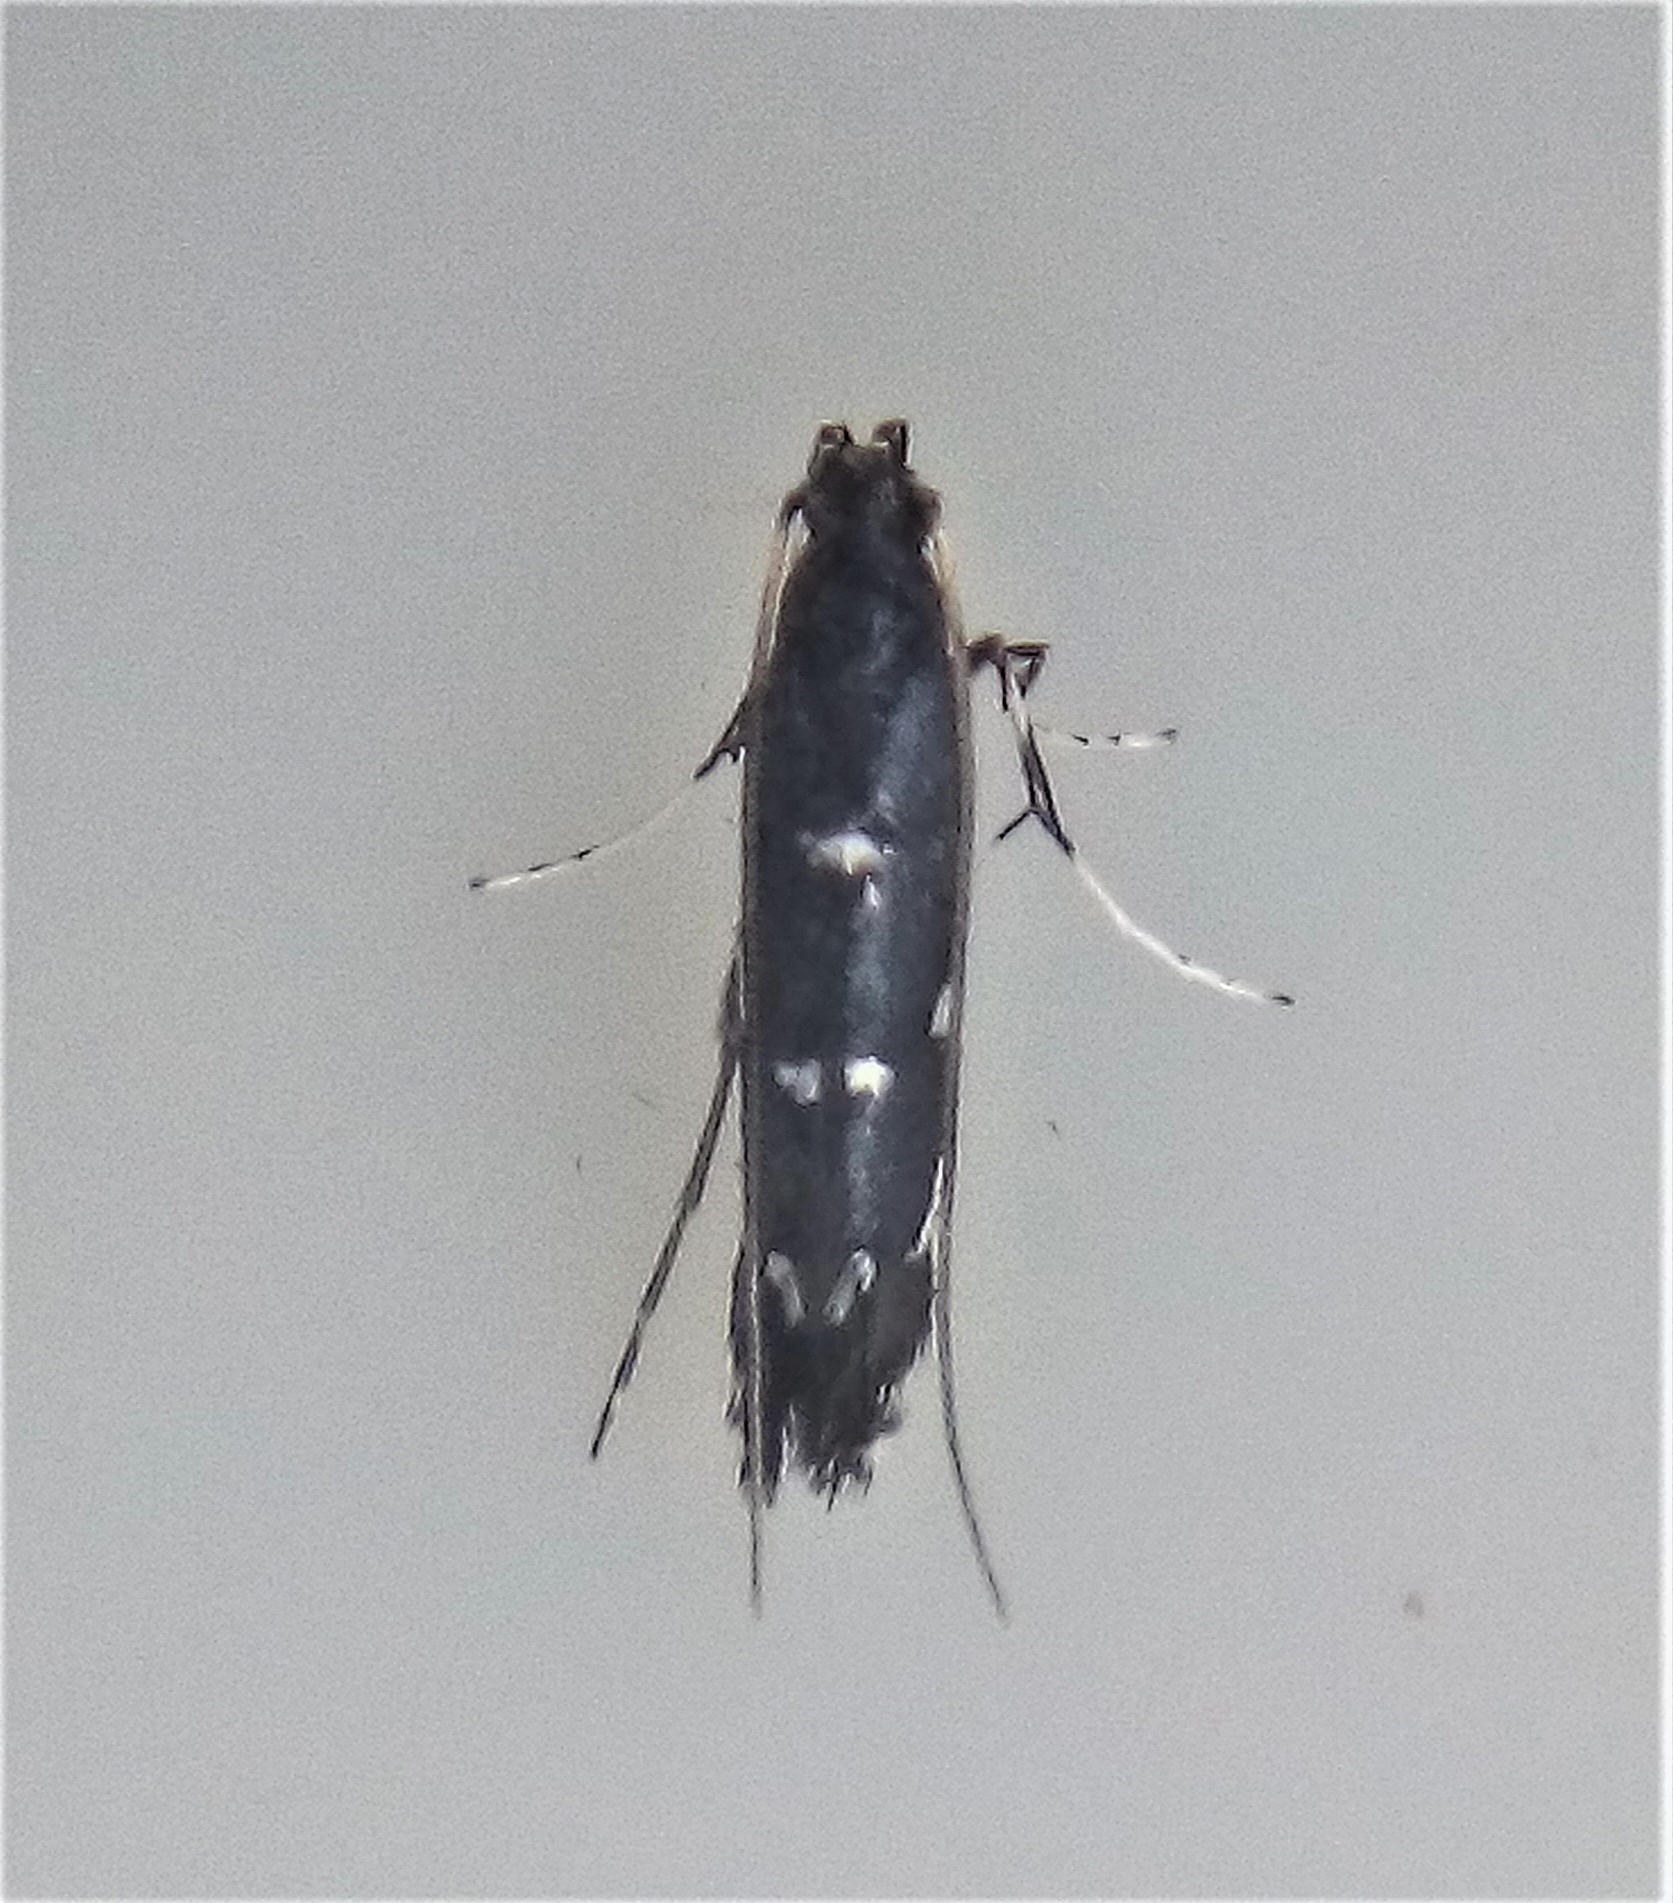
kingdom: Animalia
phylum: Arthropoda
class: Insecta
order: Lepidoptera
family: Gracillariidae
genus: Corythoxestis
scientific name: Corythoxestis zorionella
